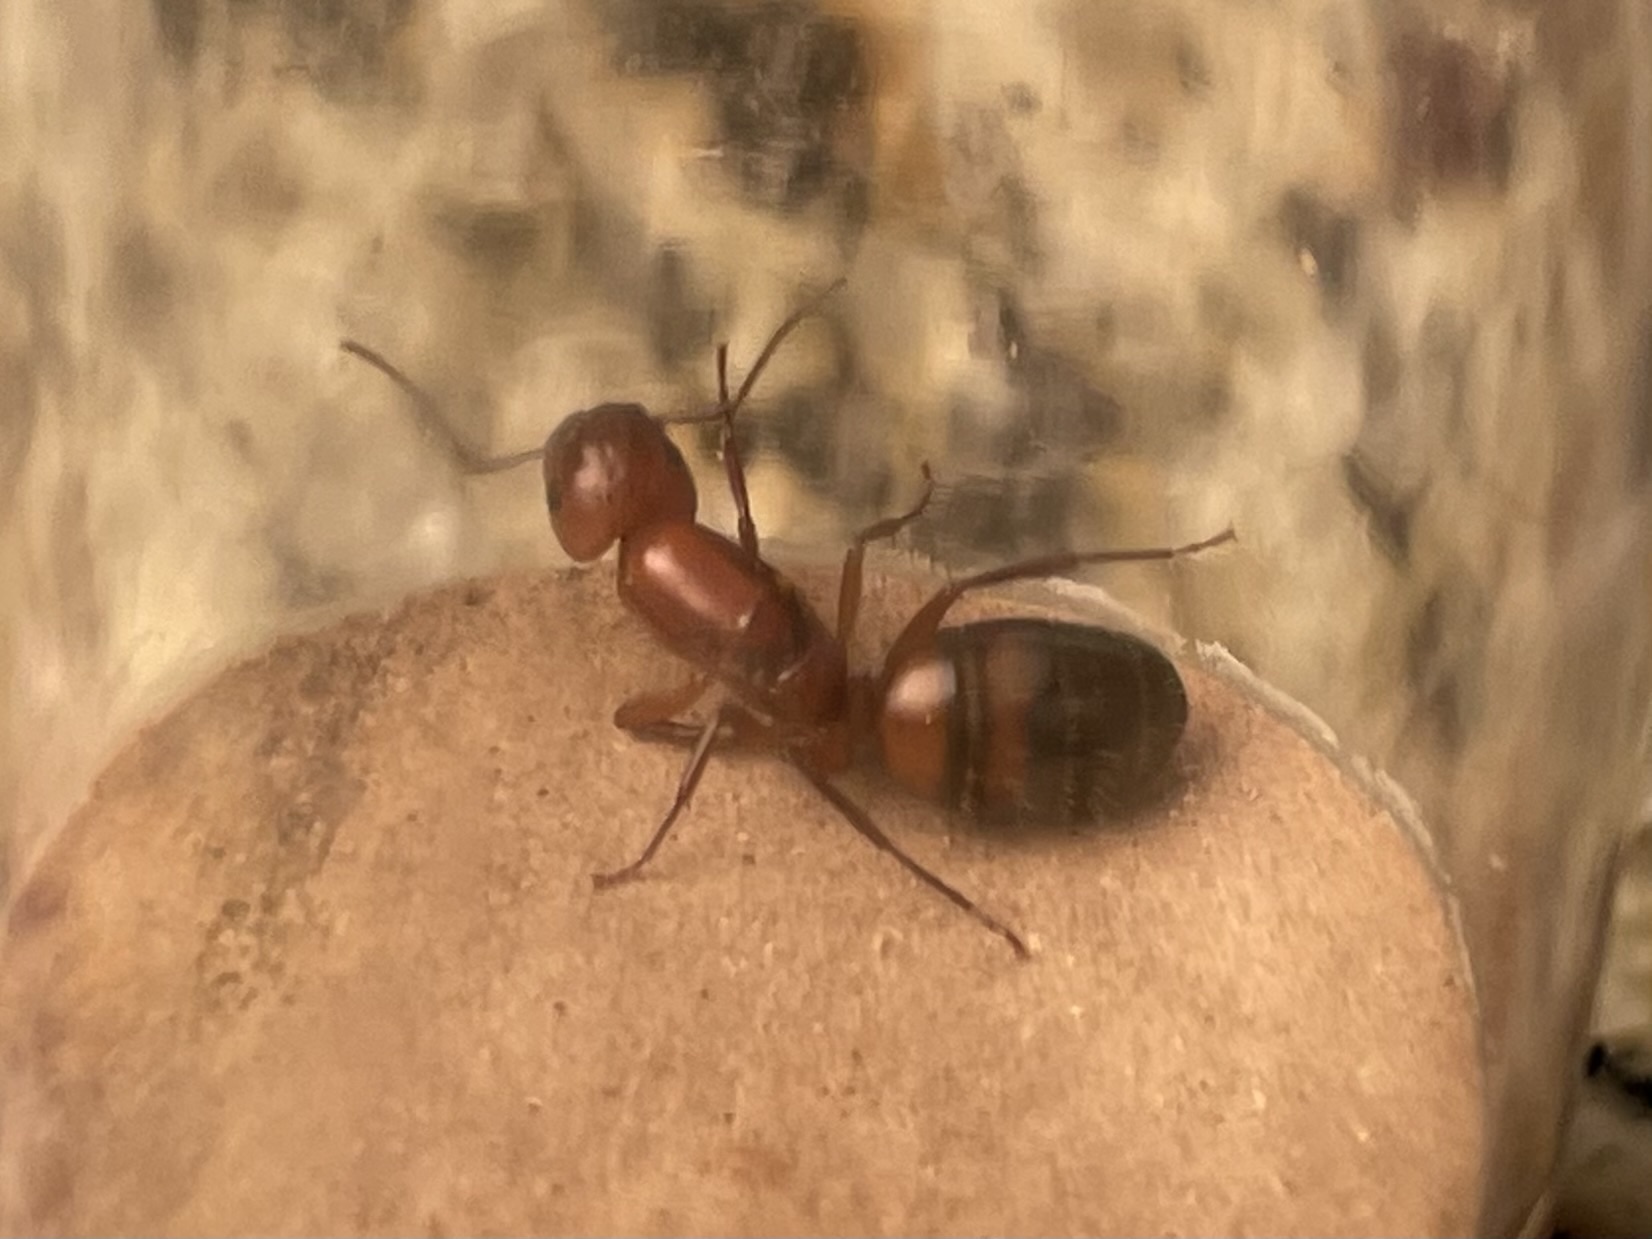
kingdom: Animalia
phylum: Arthropoda
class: Insecta
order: Hymenoptera
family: Formicidae
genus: Camponotus
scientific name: Camponotus snellingi
